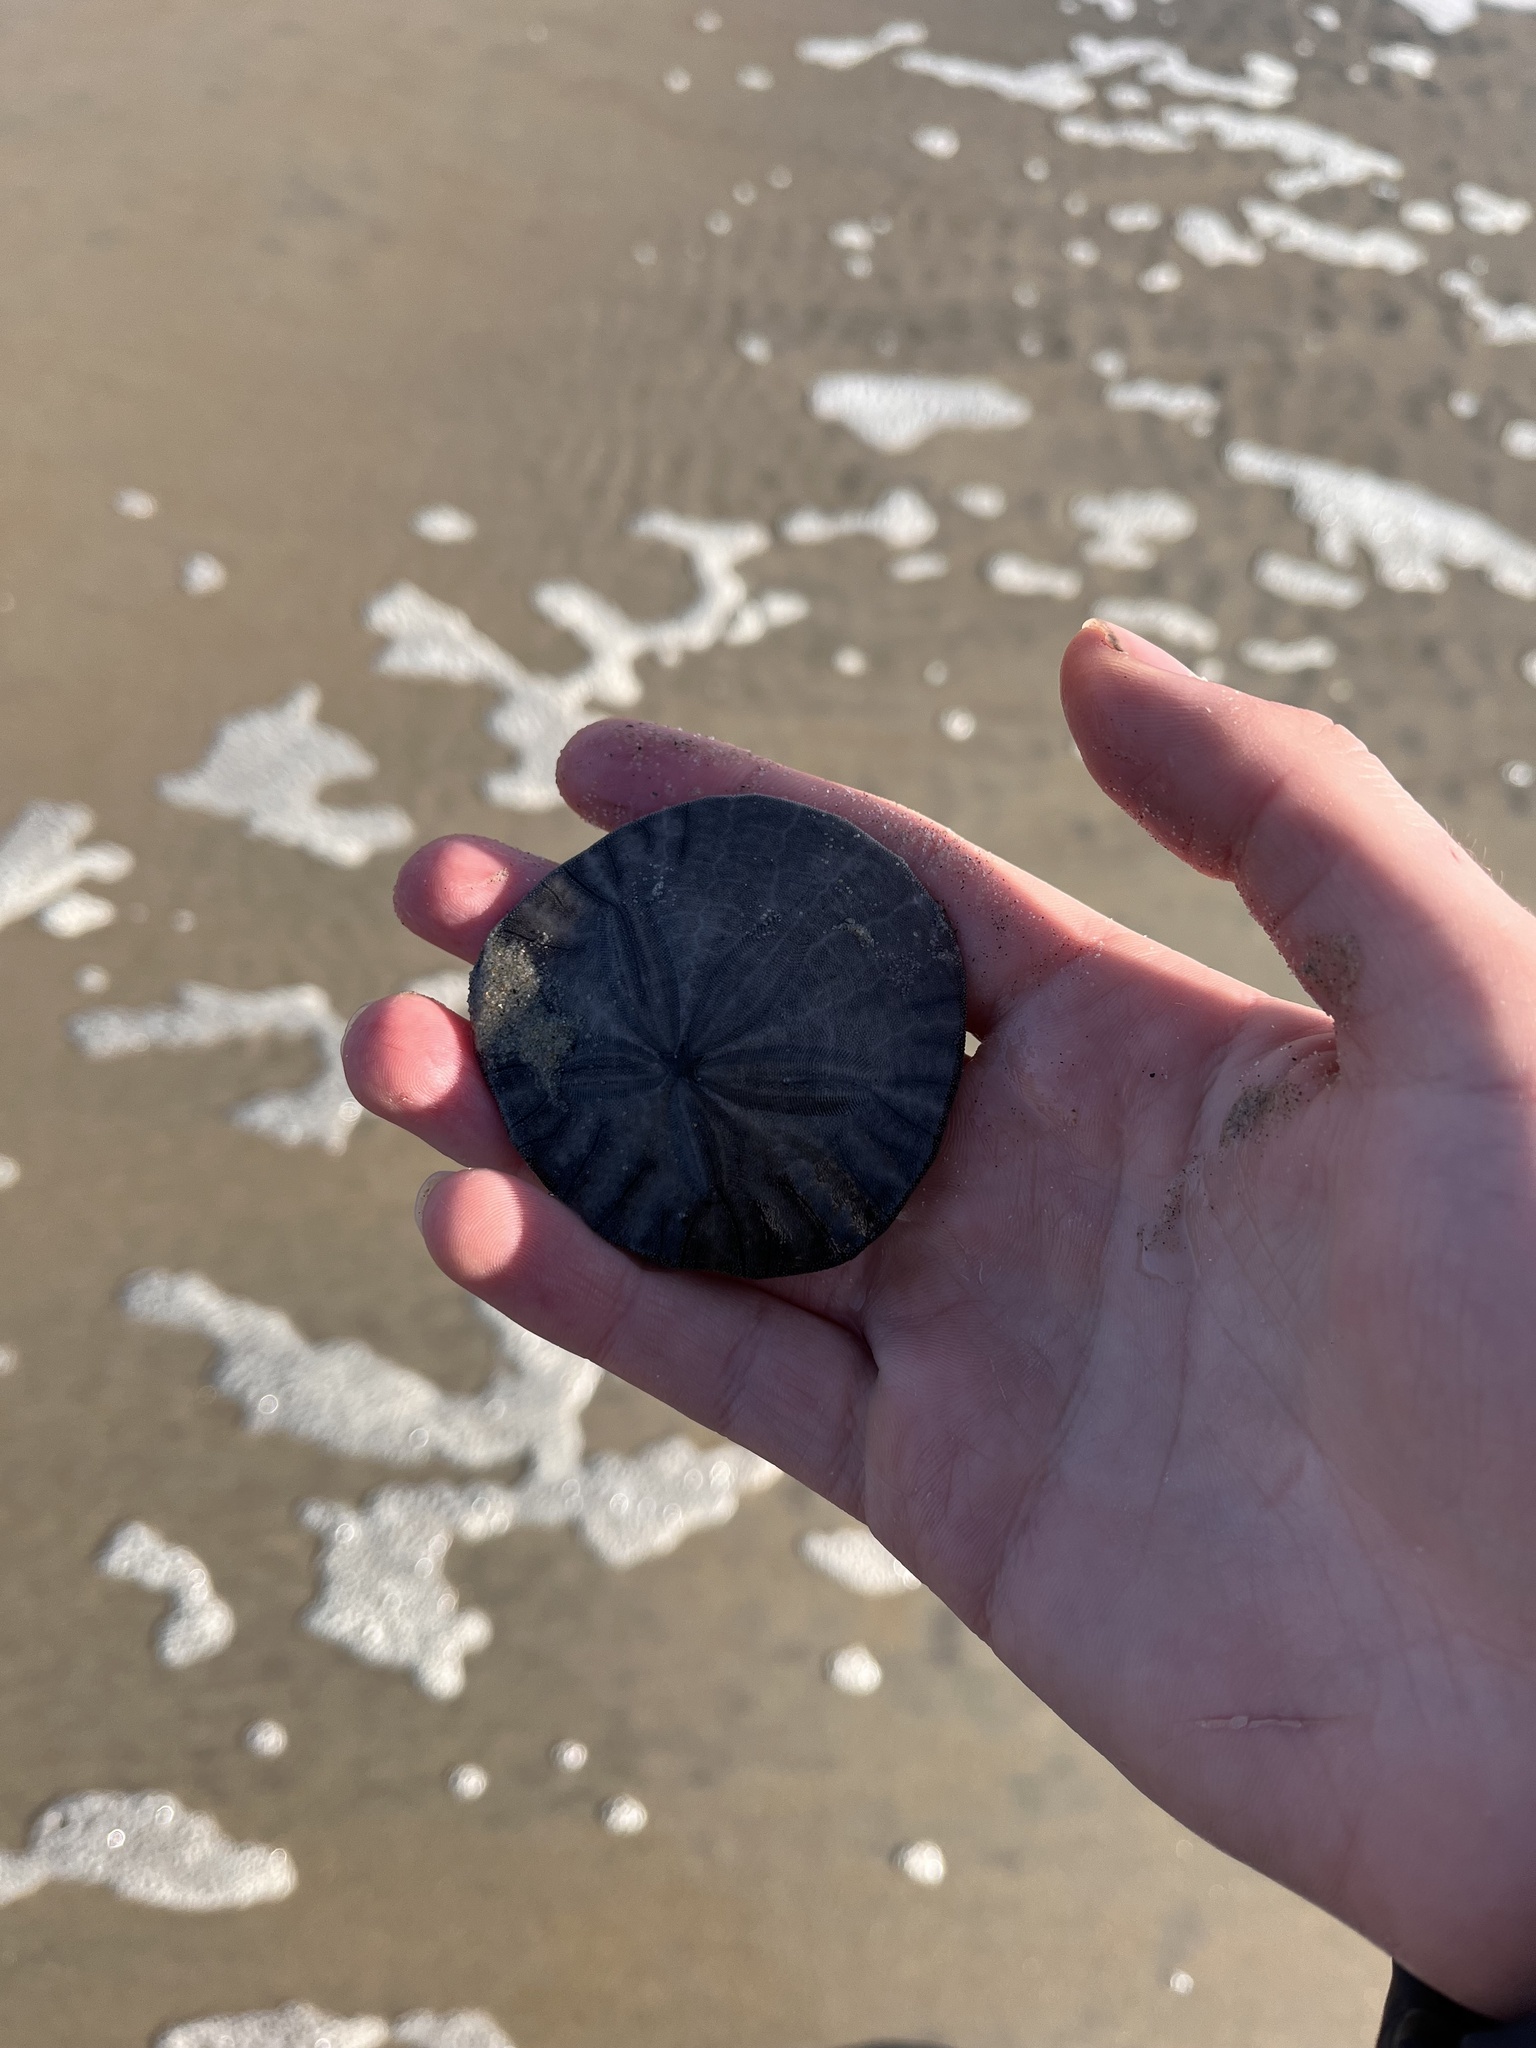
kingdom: Animalia
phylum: Echinodermata
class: Echinoidea
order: Echinolampadacea
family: Dendrasteridae
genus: Dendraster
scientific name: Dendraster excentricus
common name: Eccentric sand dollar sea urchin
